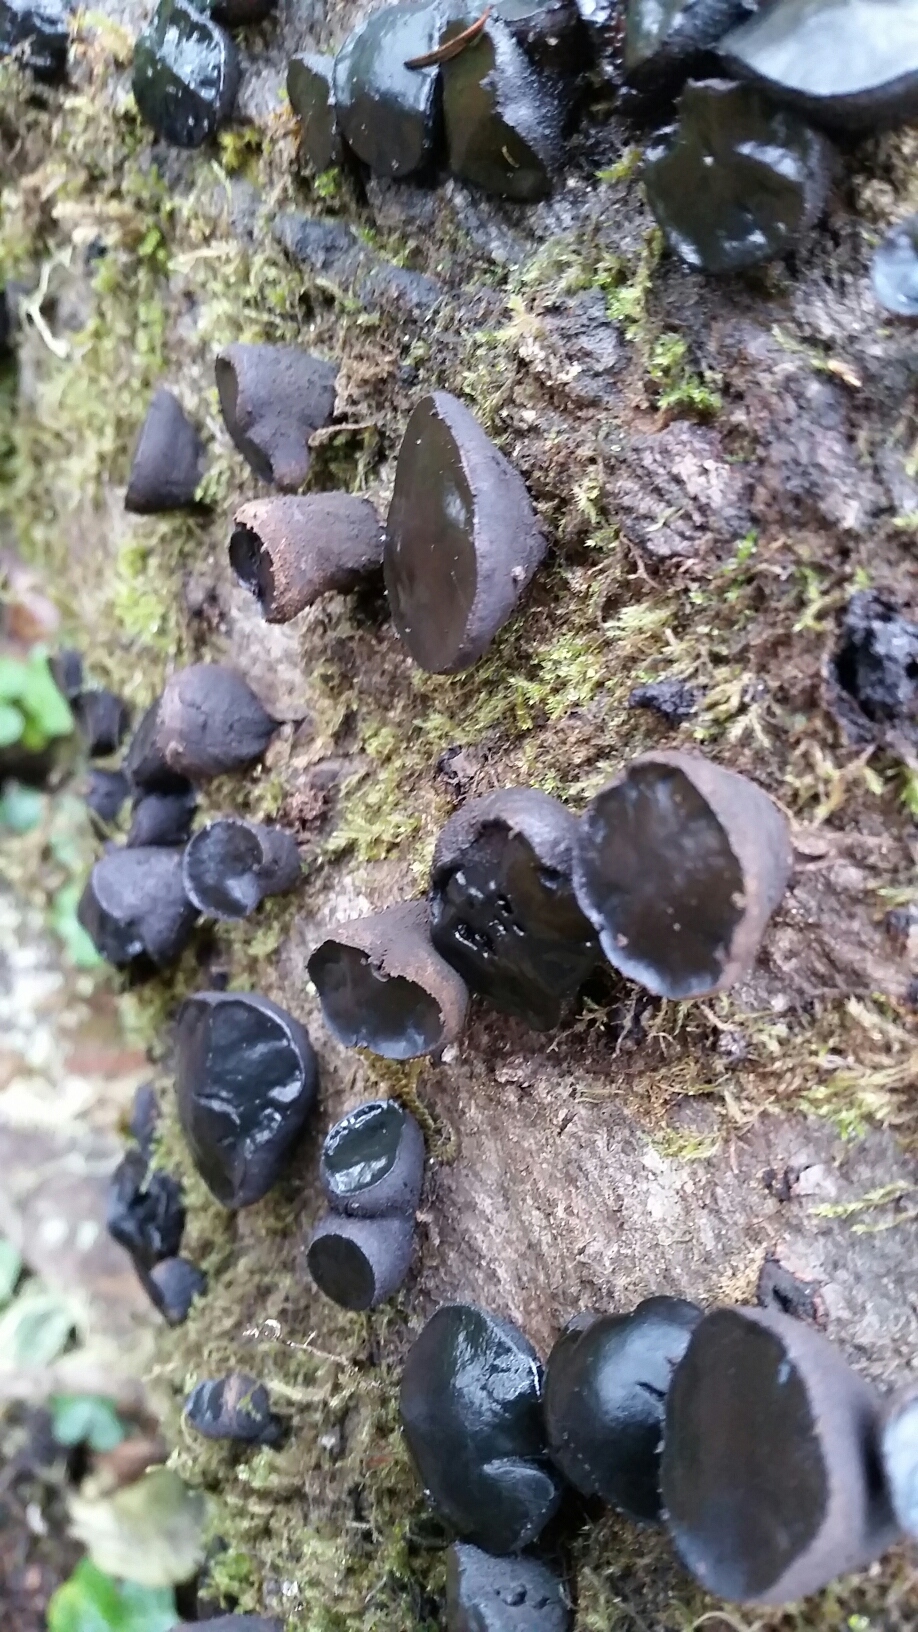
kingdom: Fungi
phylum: Ascomycota
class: Leotiomycetes
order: Phacidiales
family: Phacidiaceae
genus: Bulgaria
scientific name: Bulgaria inquinans
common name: Black bulgar
